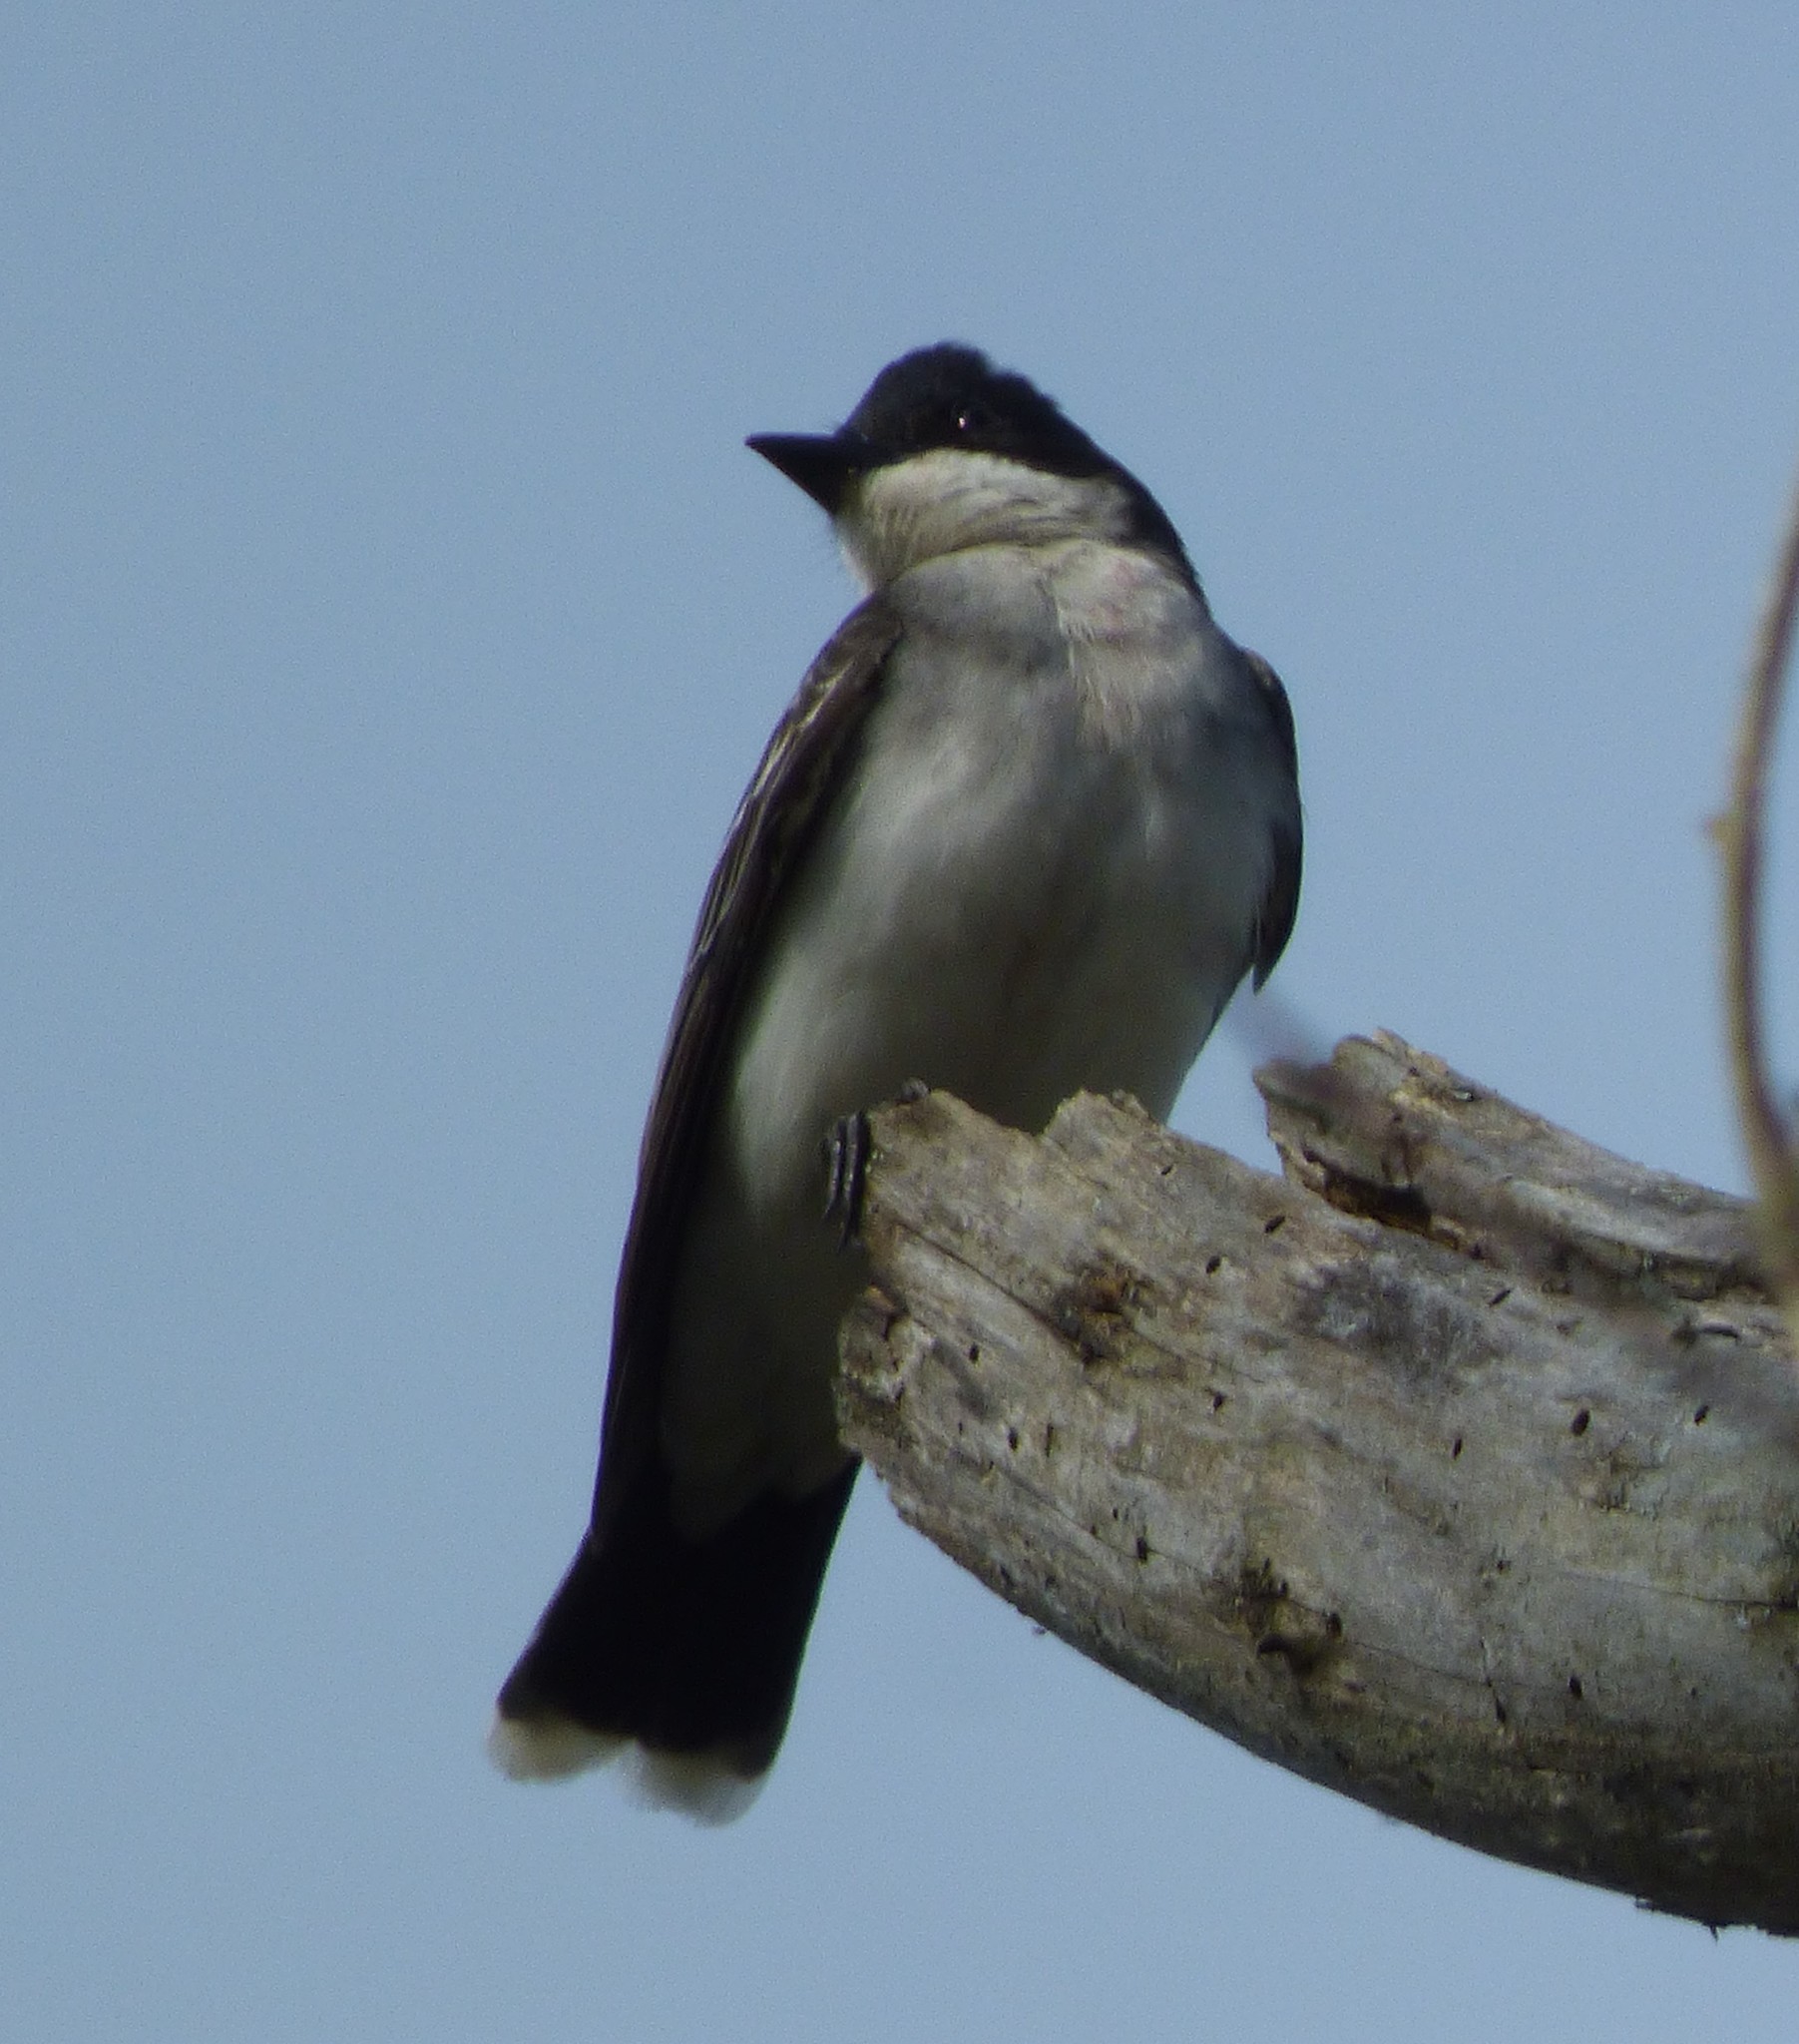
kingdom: Animalia
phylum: Chordata
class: Aves
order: Passeriformes
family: Tyrannidae
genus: Tyrannus
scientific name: Tyrannus tyrannus
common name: Eastern kingbird
